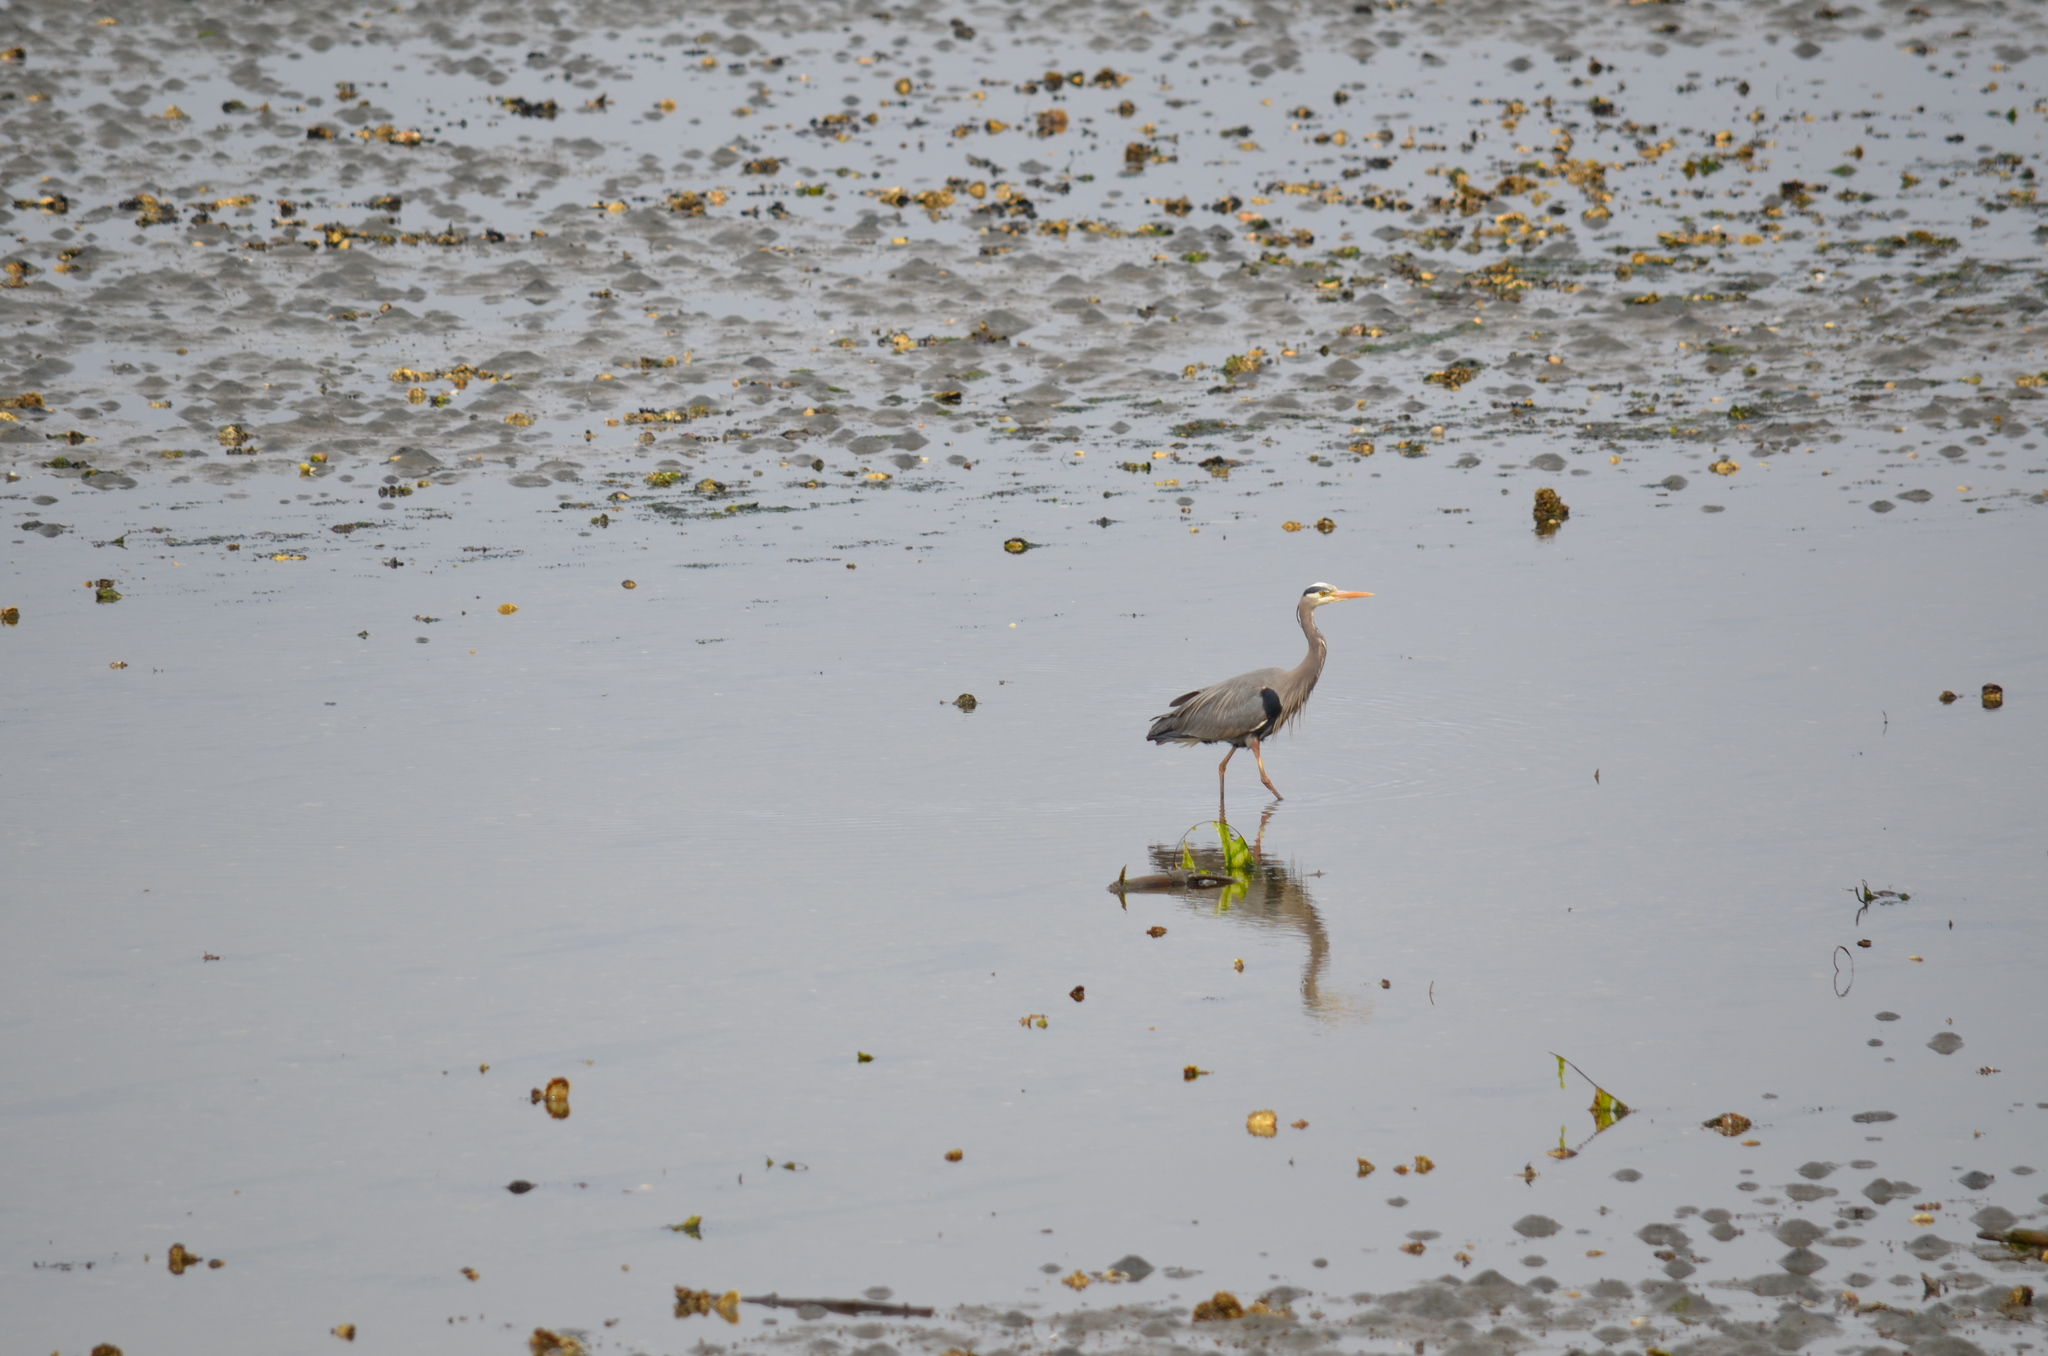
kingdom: Animalia
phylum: Chordata
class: Aves
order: Pelecaniformes
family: Ardeidae
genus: Ardea
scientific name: Ardea herodias
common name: Great blue heron
